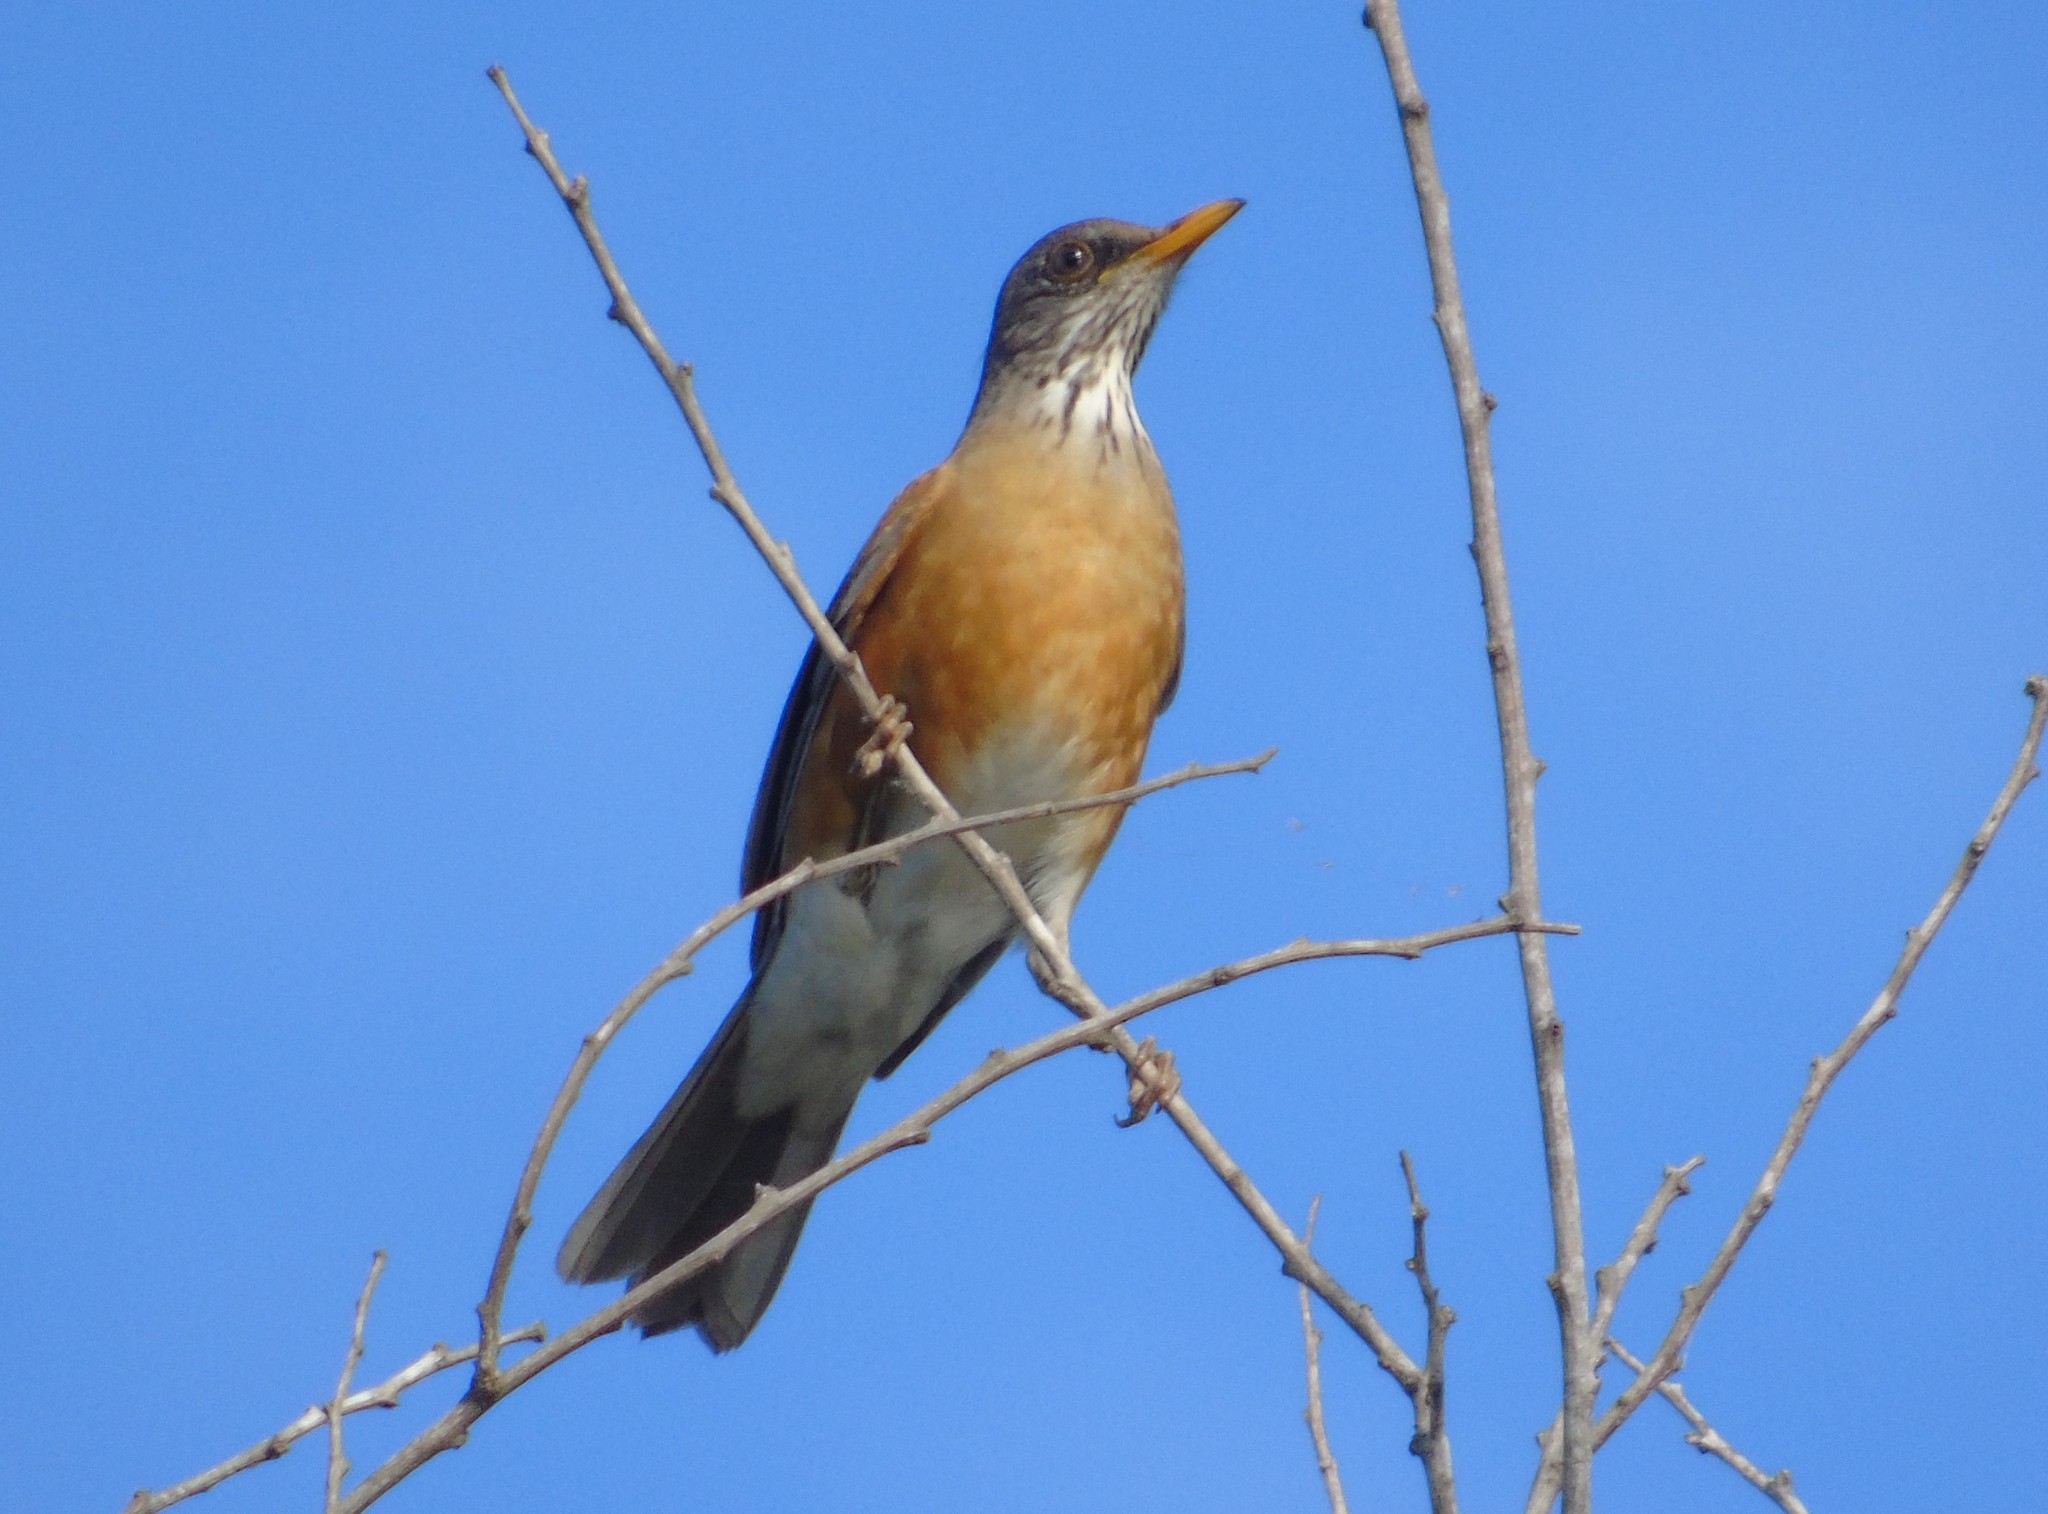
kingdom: Animalia
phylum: Chordata
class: Aves
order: Passeriformes
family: Turdidae
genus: Turdus
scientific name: Turdus rufopalliatus
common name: Rufous-backed robin
